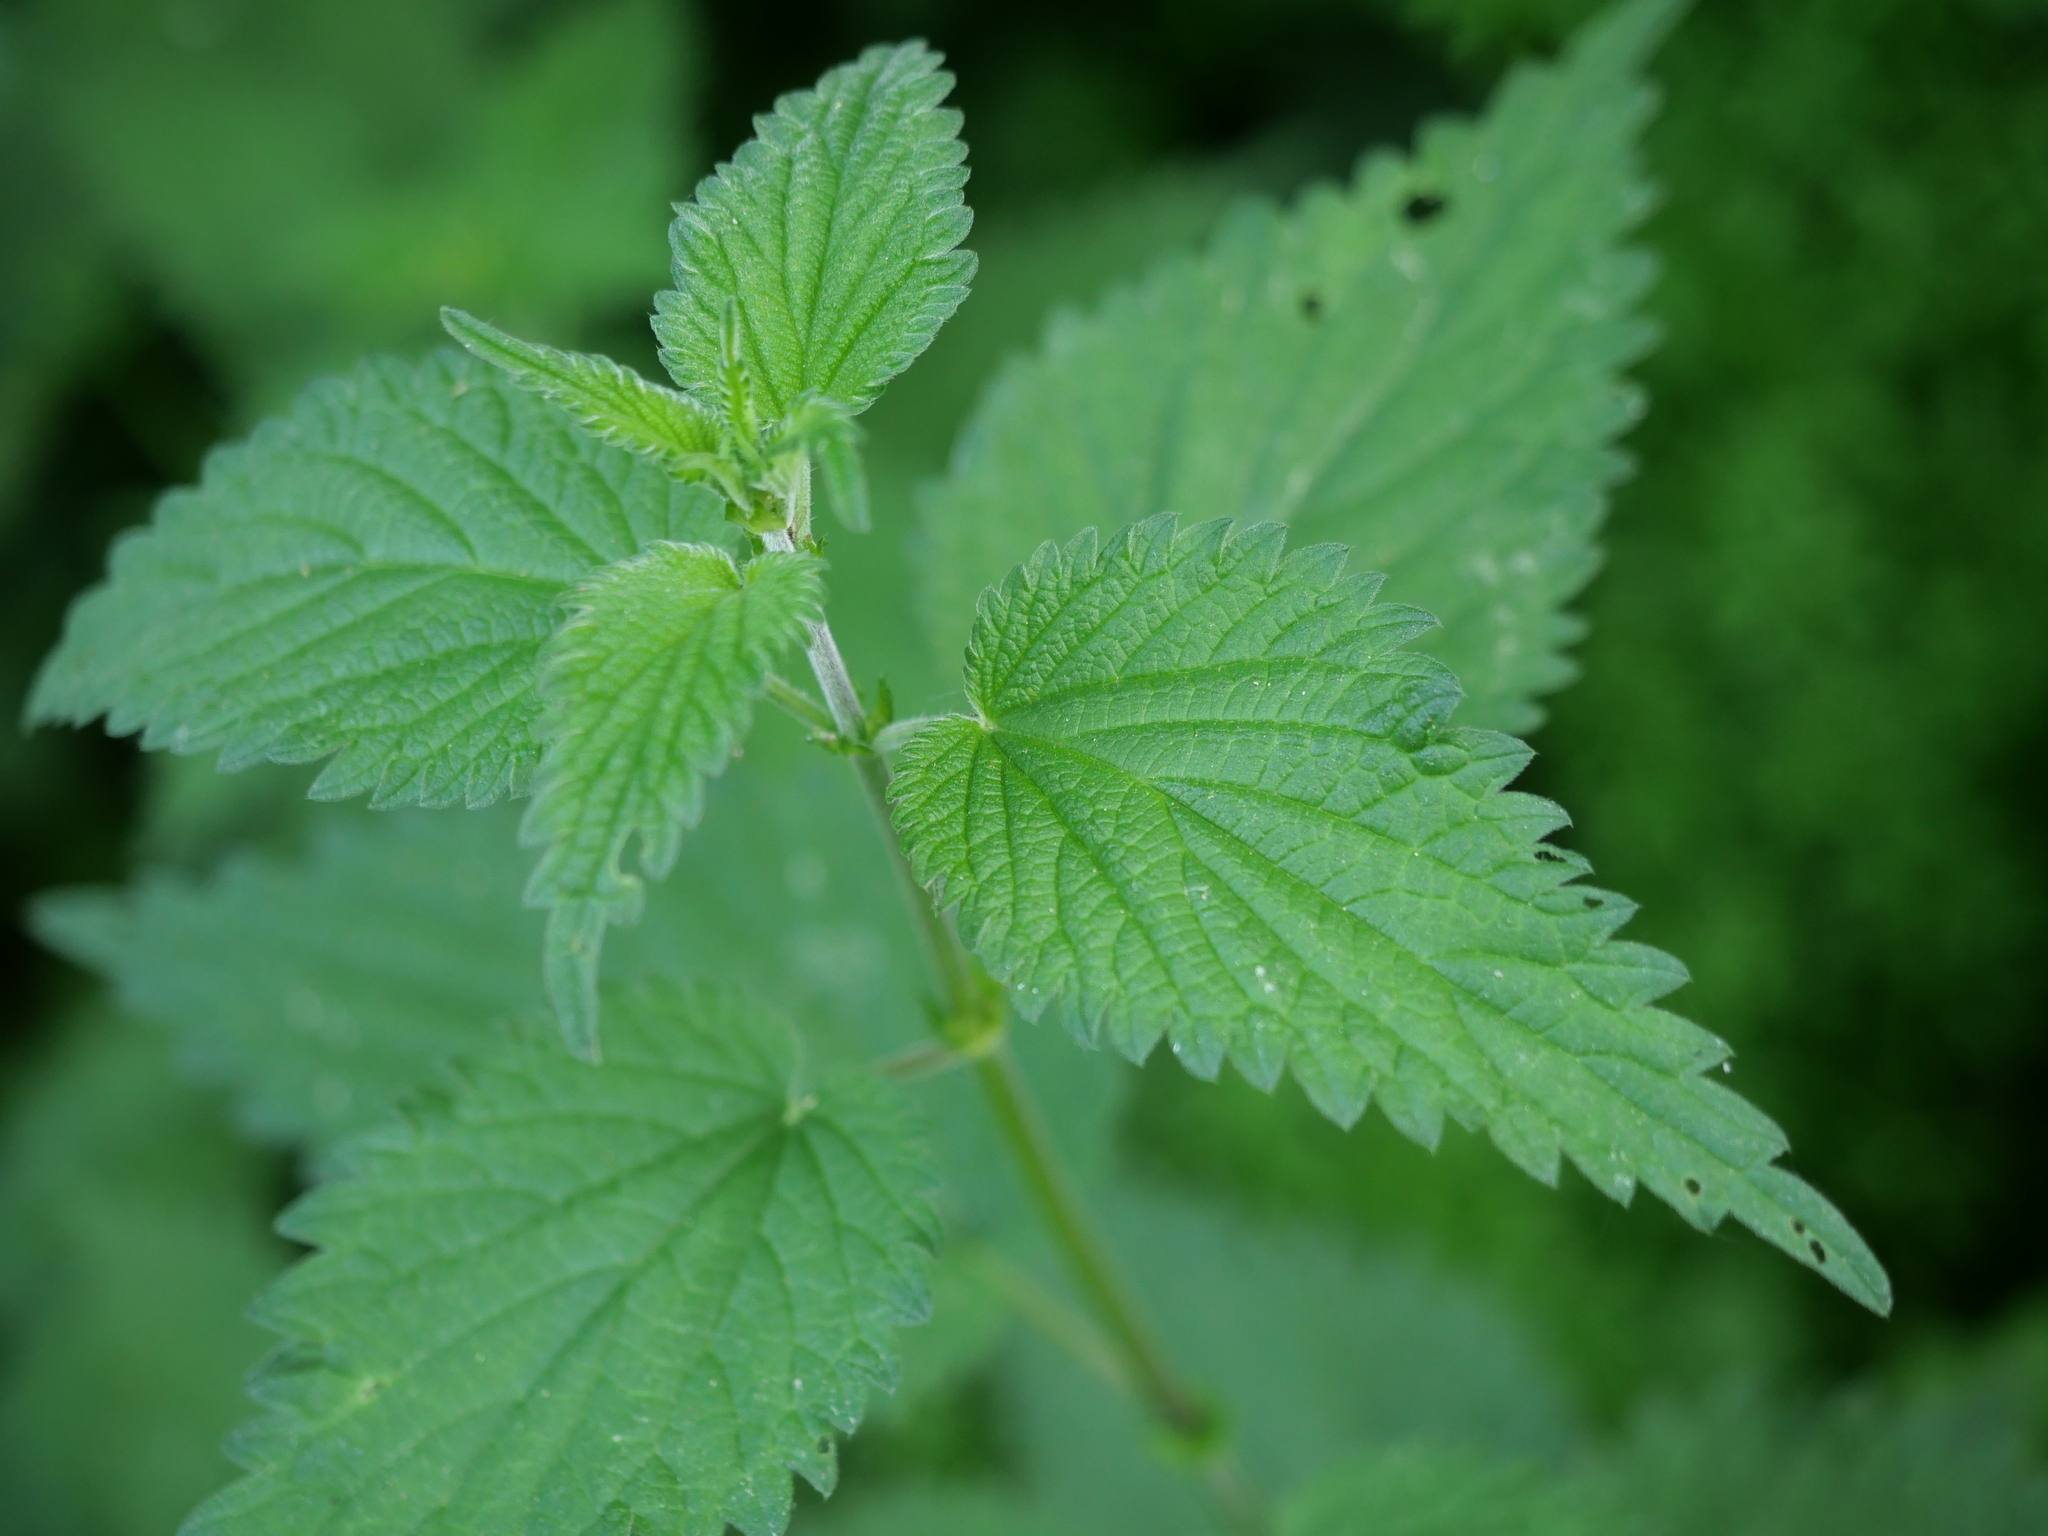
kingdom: Plantae
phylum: Tracheophyta
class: Magnoliopsida
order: Rosales
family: Urticaceae
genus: Urtica
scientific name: Urtica dioica
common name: Common nettle
